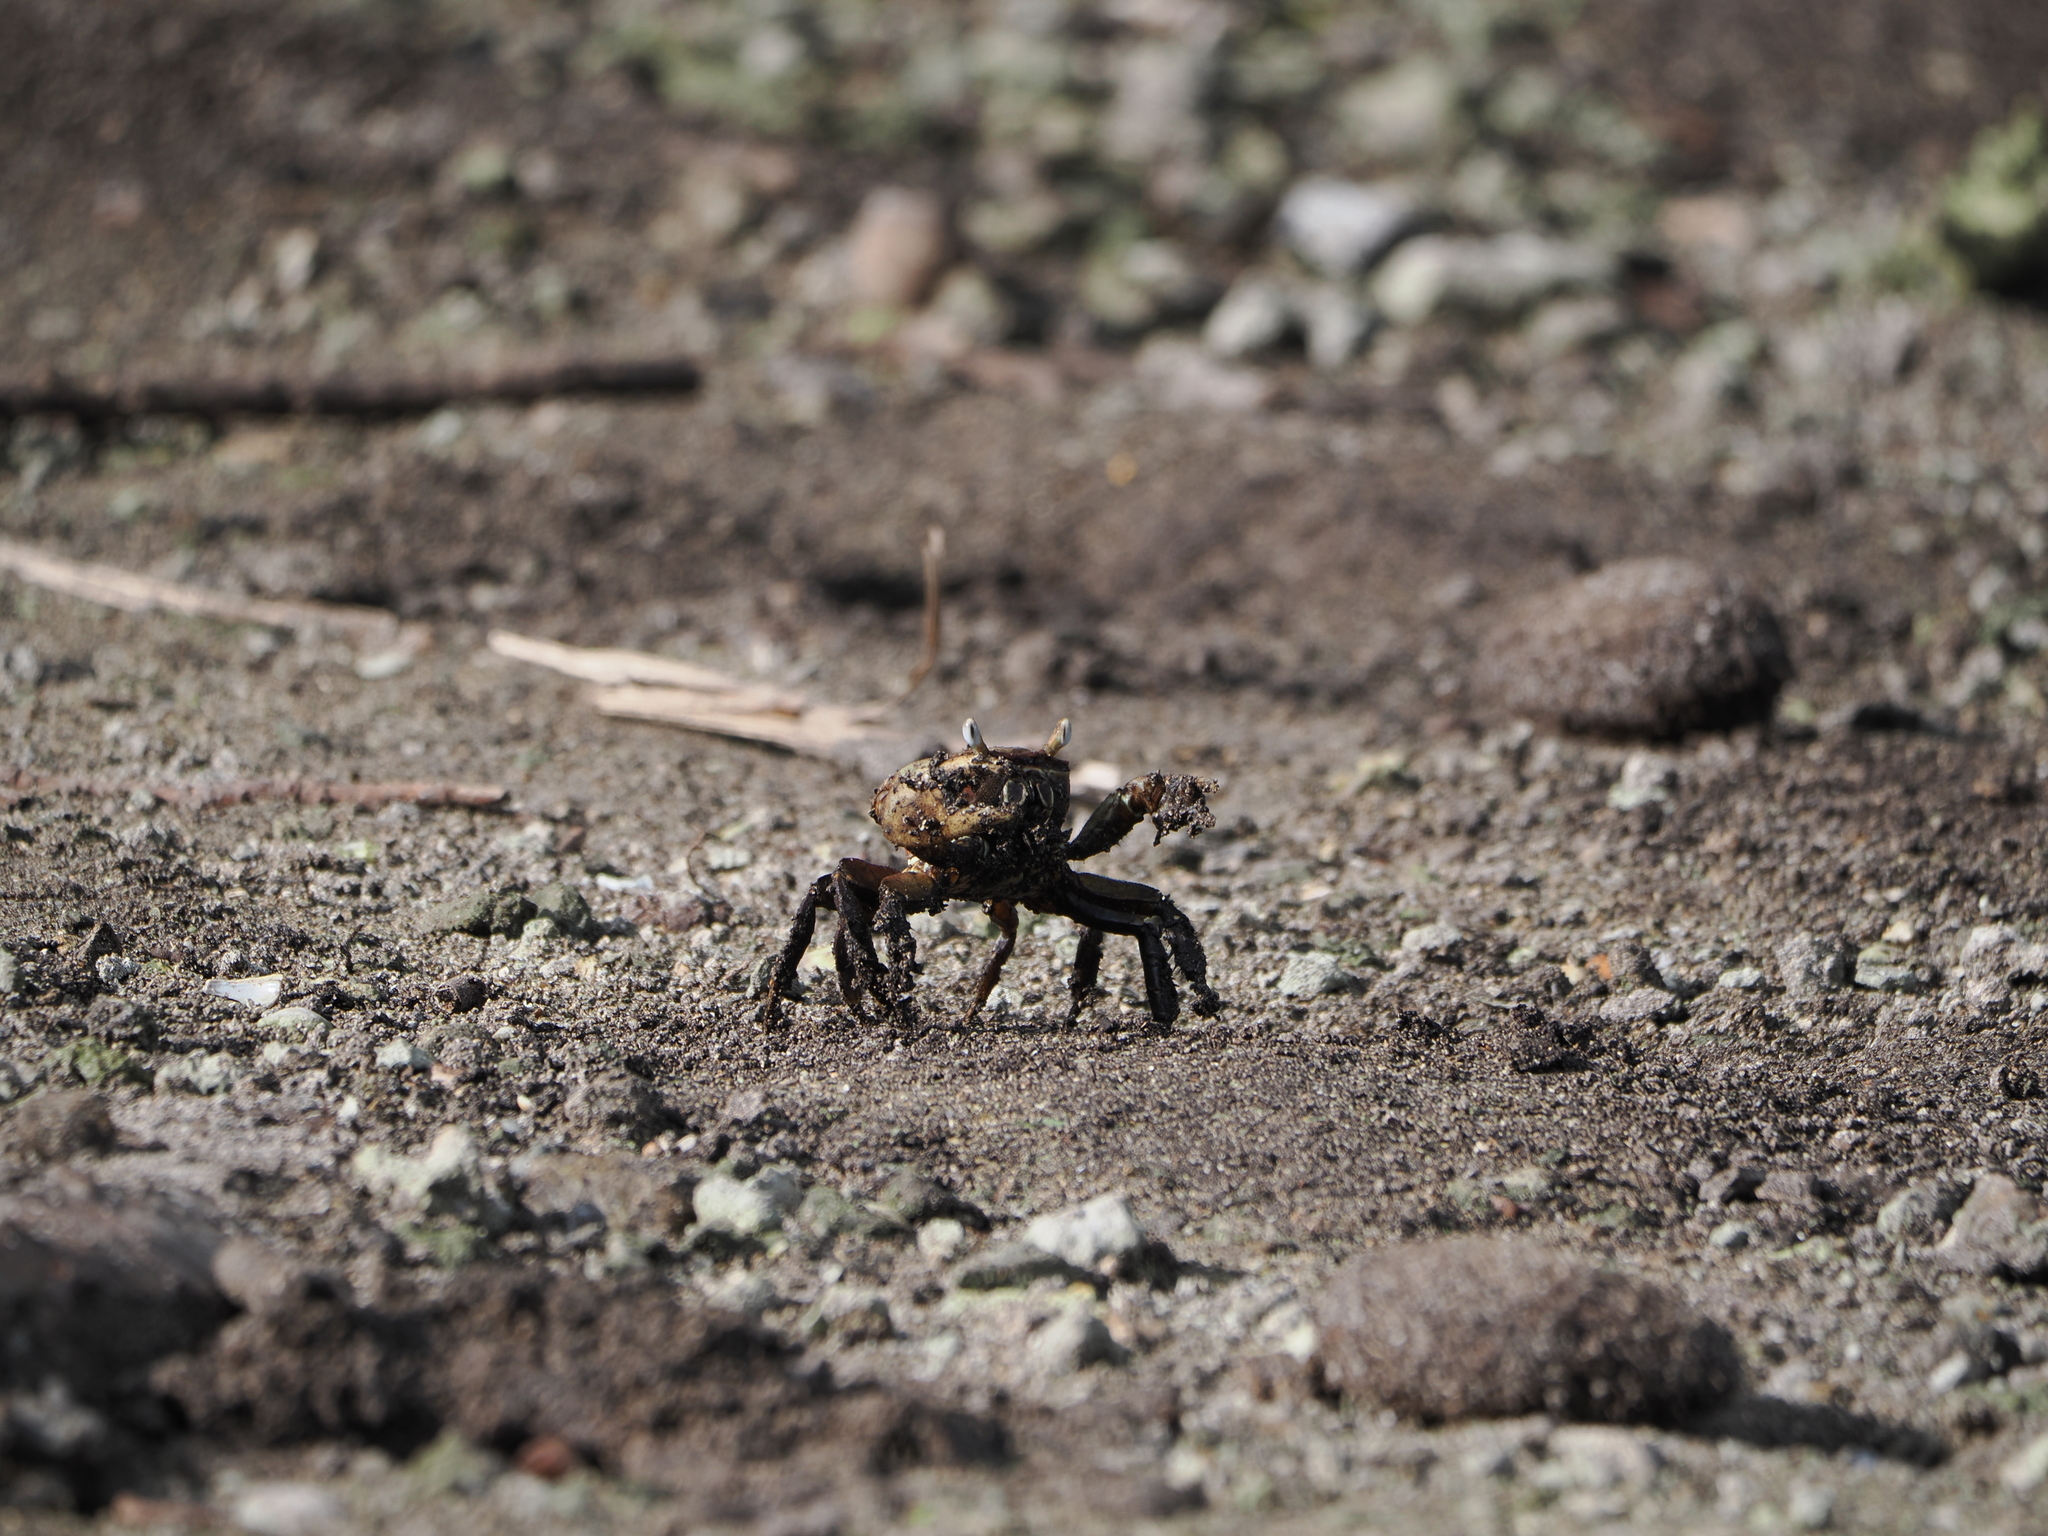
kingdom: Animalia
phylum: Arthropoda
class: Malacostraca
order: Decapoda
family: Gecarcinidae
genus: Cardisoma
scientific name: Cardisoma carnifex
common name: Brown land crab
